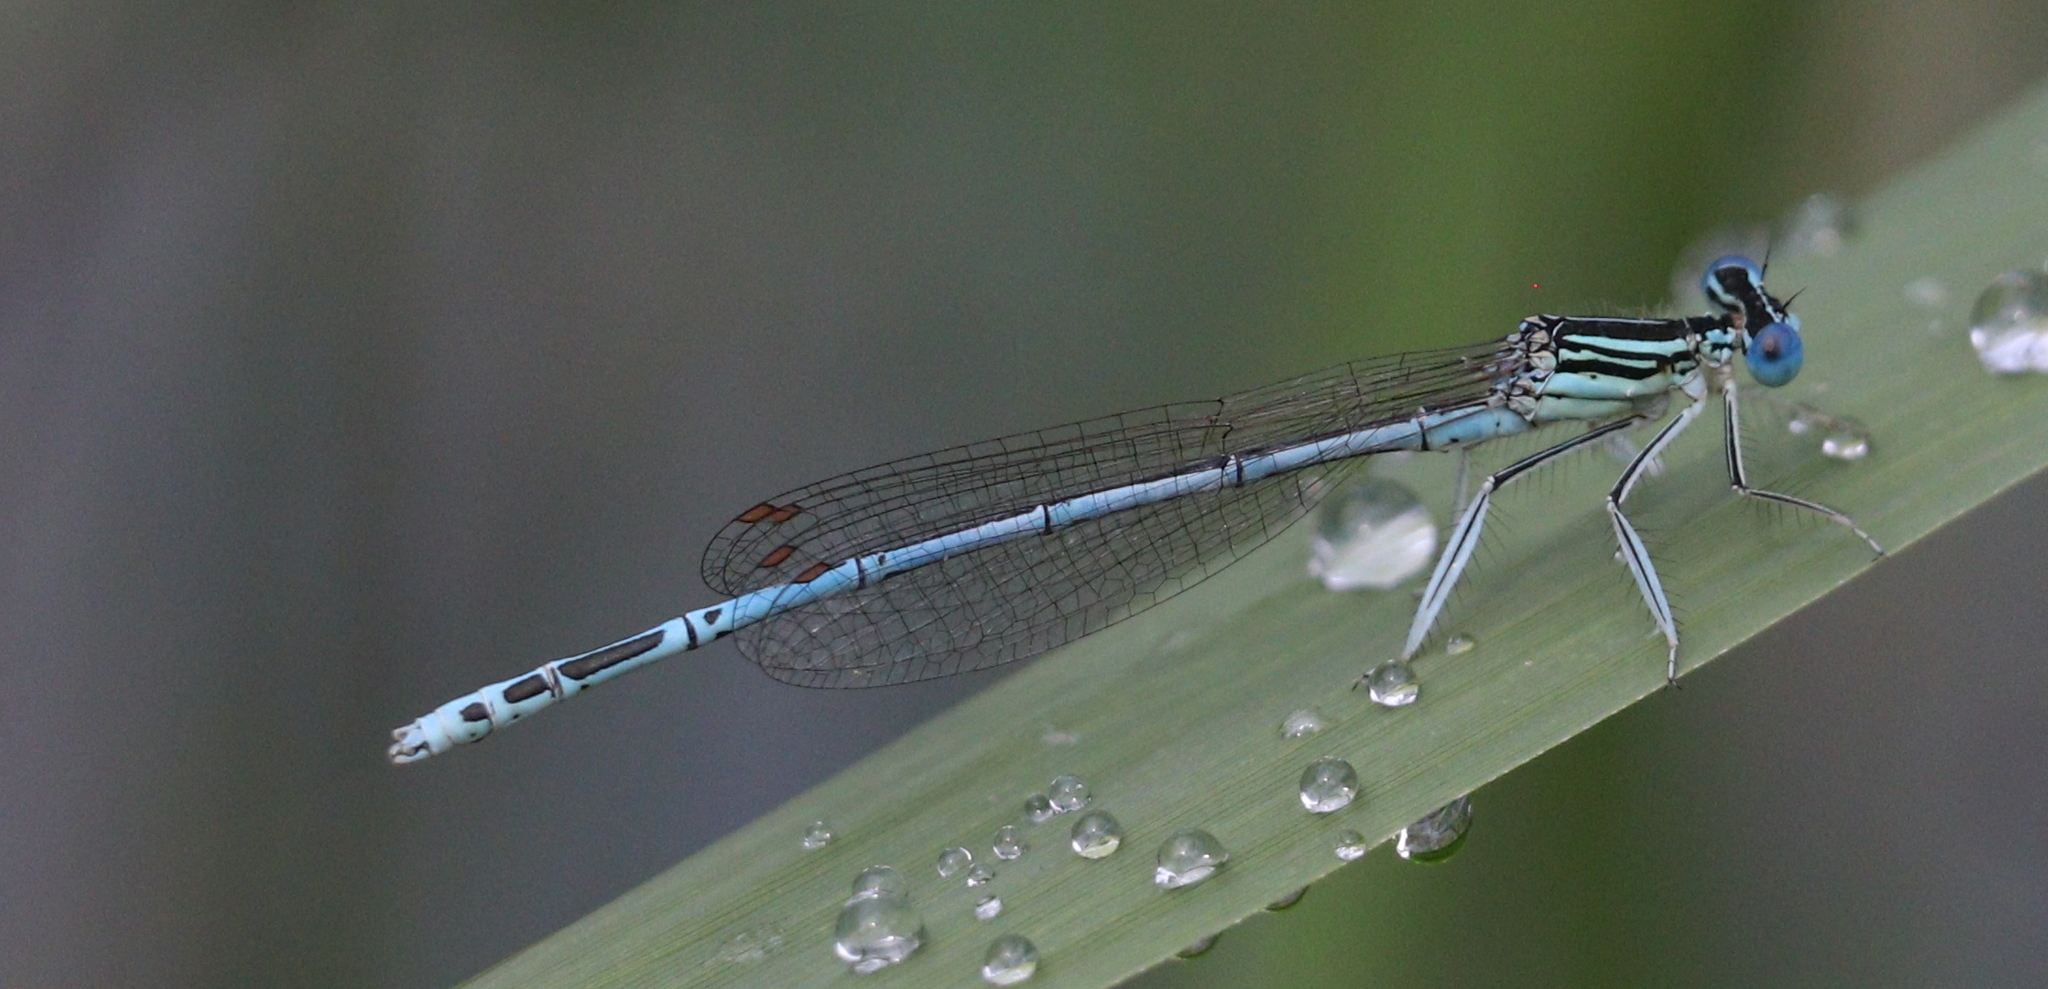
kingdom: Animalia
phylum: Arthropoda
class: Insecta
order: Odonata
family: Platycnemididae
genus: Platycnemis
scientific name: Platycnemis pennipes
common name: White-legged damselfly
